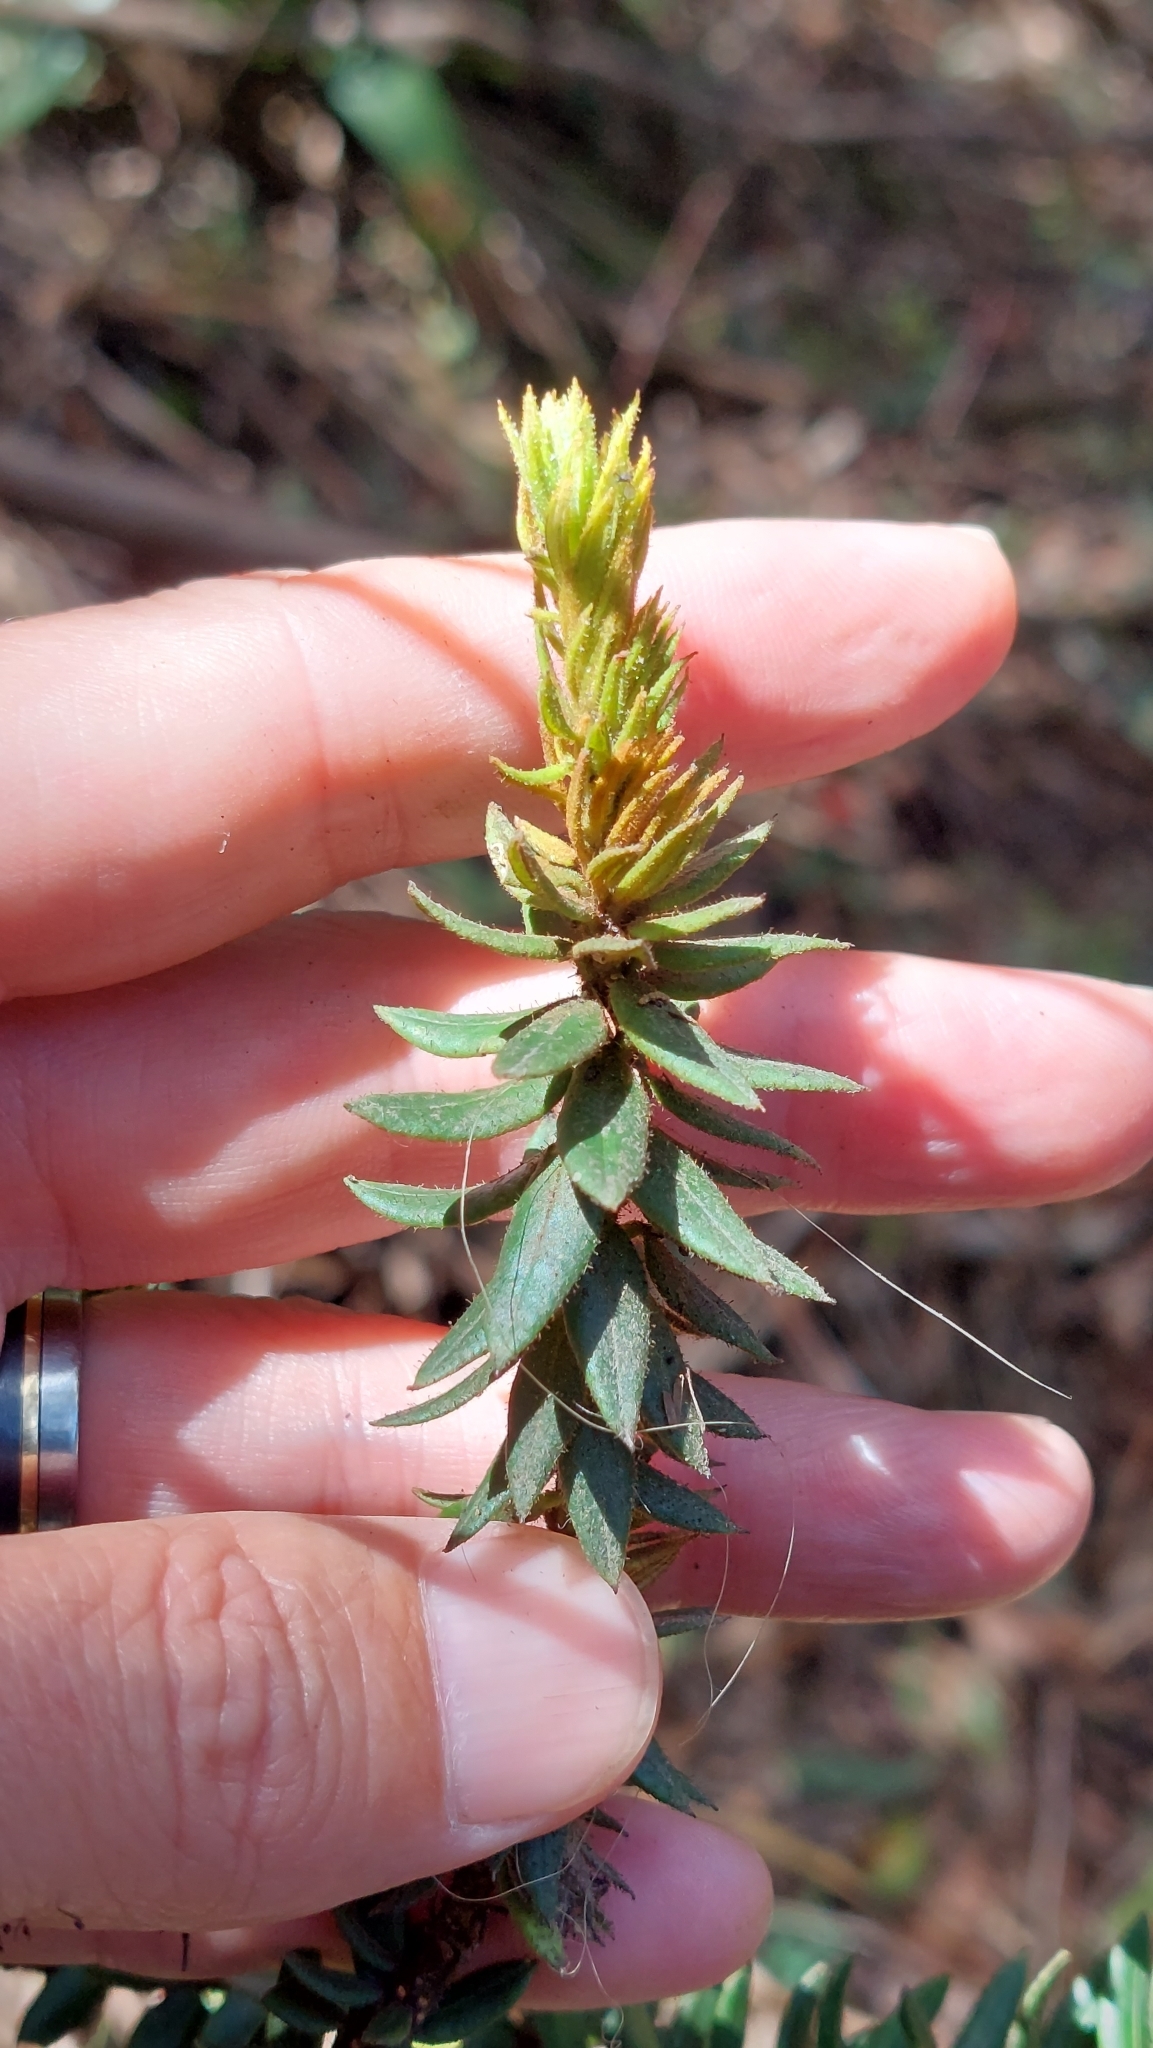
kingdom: Plantae
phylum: Tracheophyta
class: Magnoliopsida
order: Ericales
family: Ericaceae
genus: Bejaria
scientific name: Bejaria resinosa
